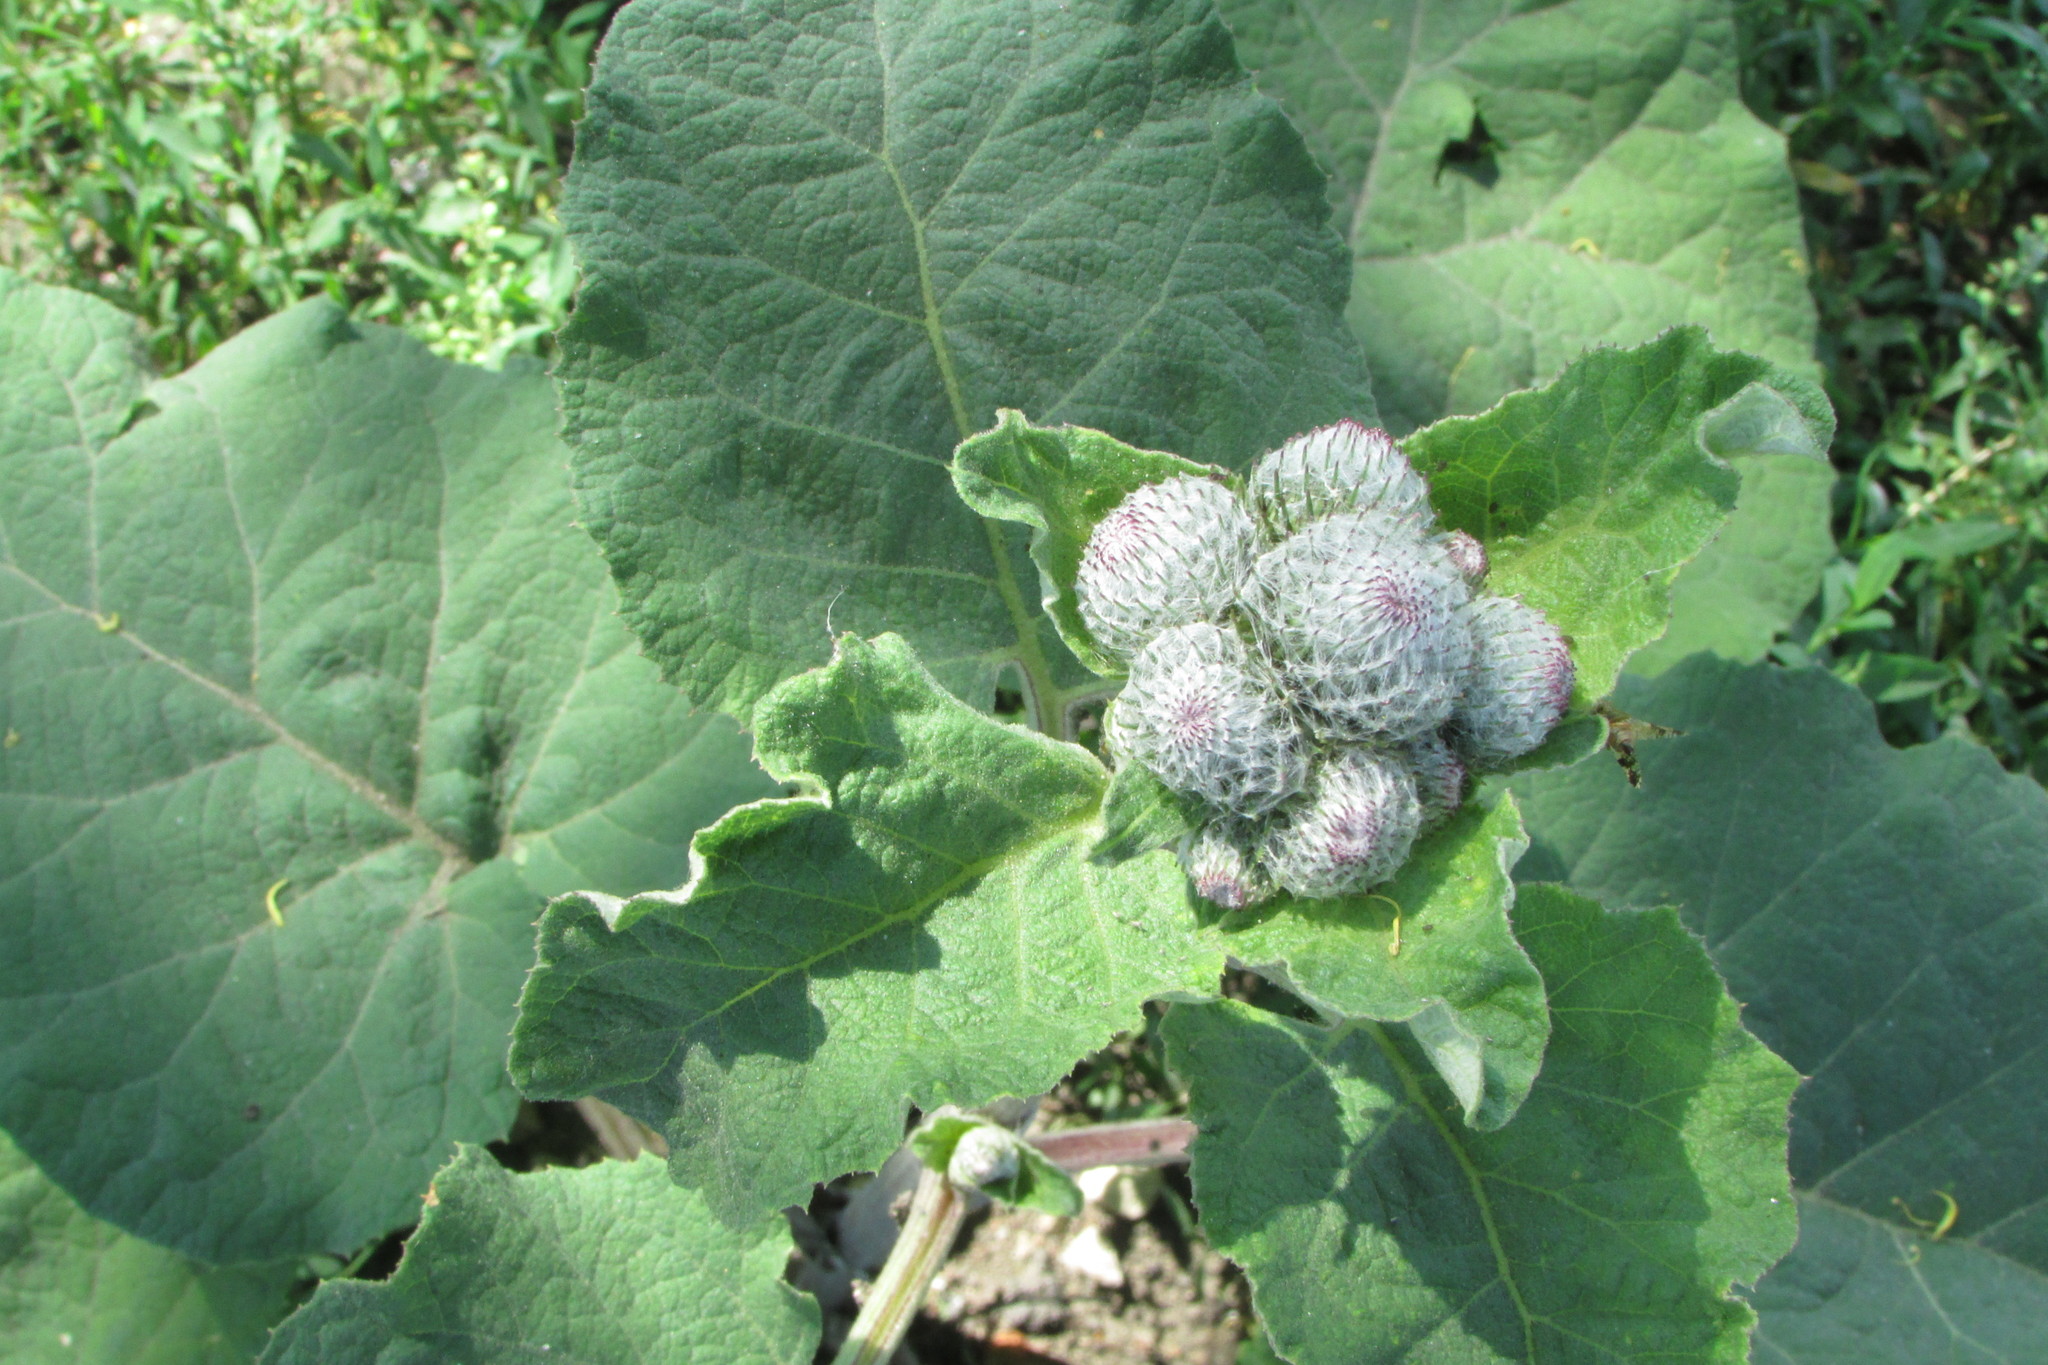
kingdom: Plantae
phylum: Tracheophyta
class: Magnoliopsida
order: Asterales
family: Asteraceae
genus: Arctium
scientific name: Arctium tomentosum
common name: Woolly burdock
